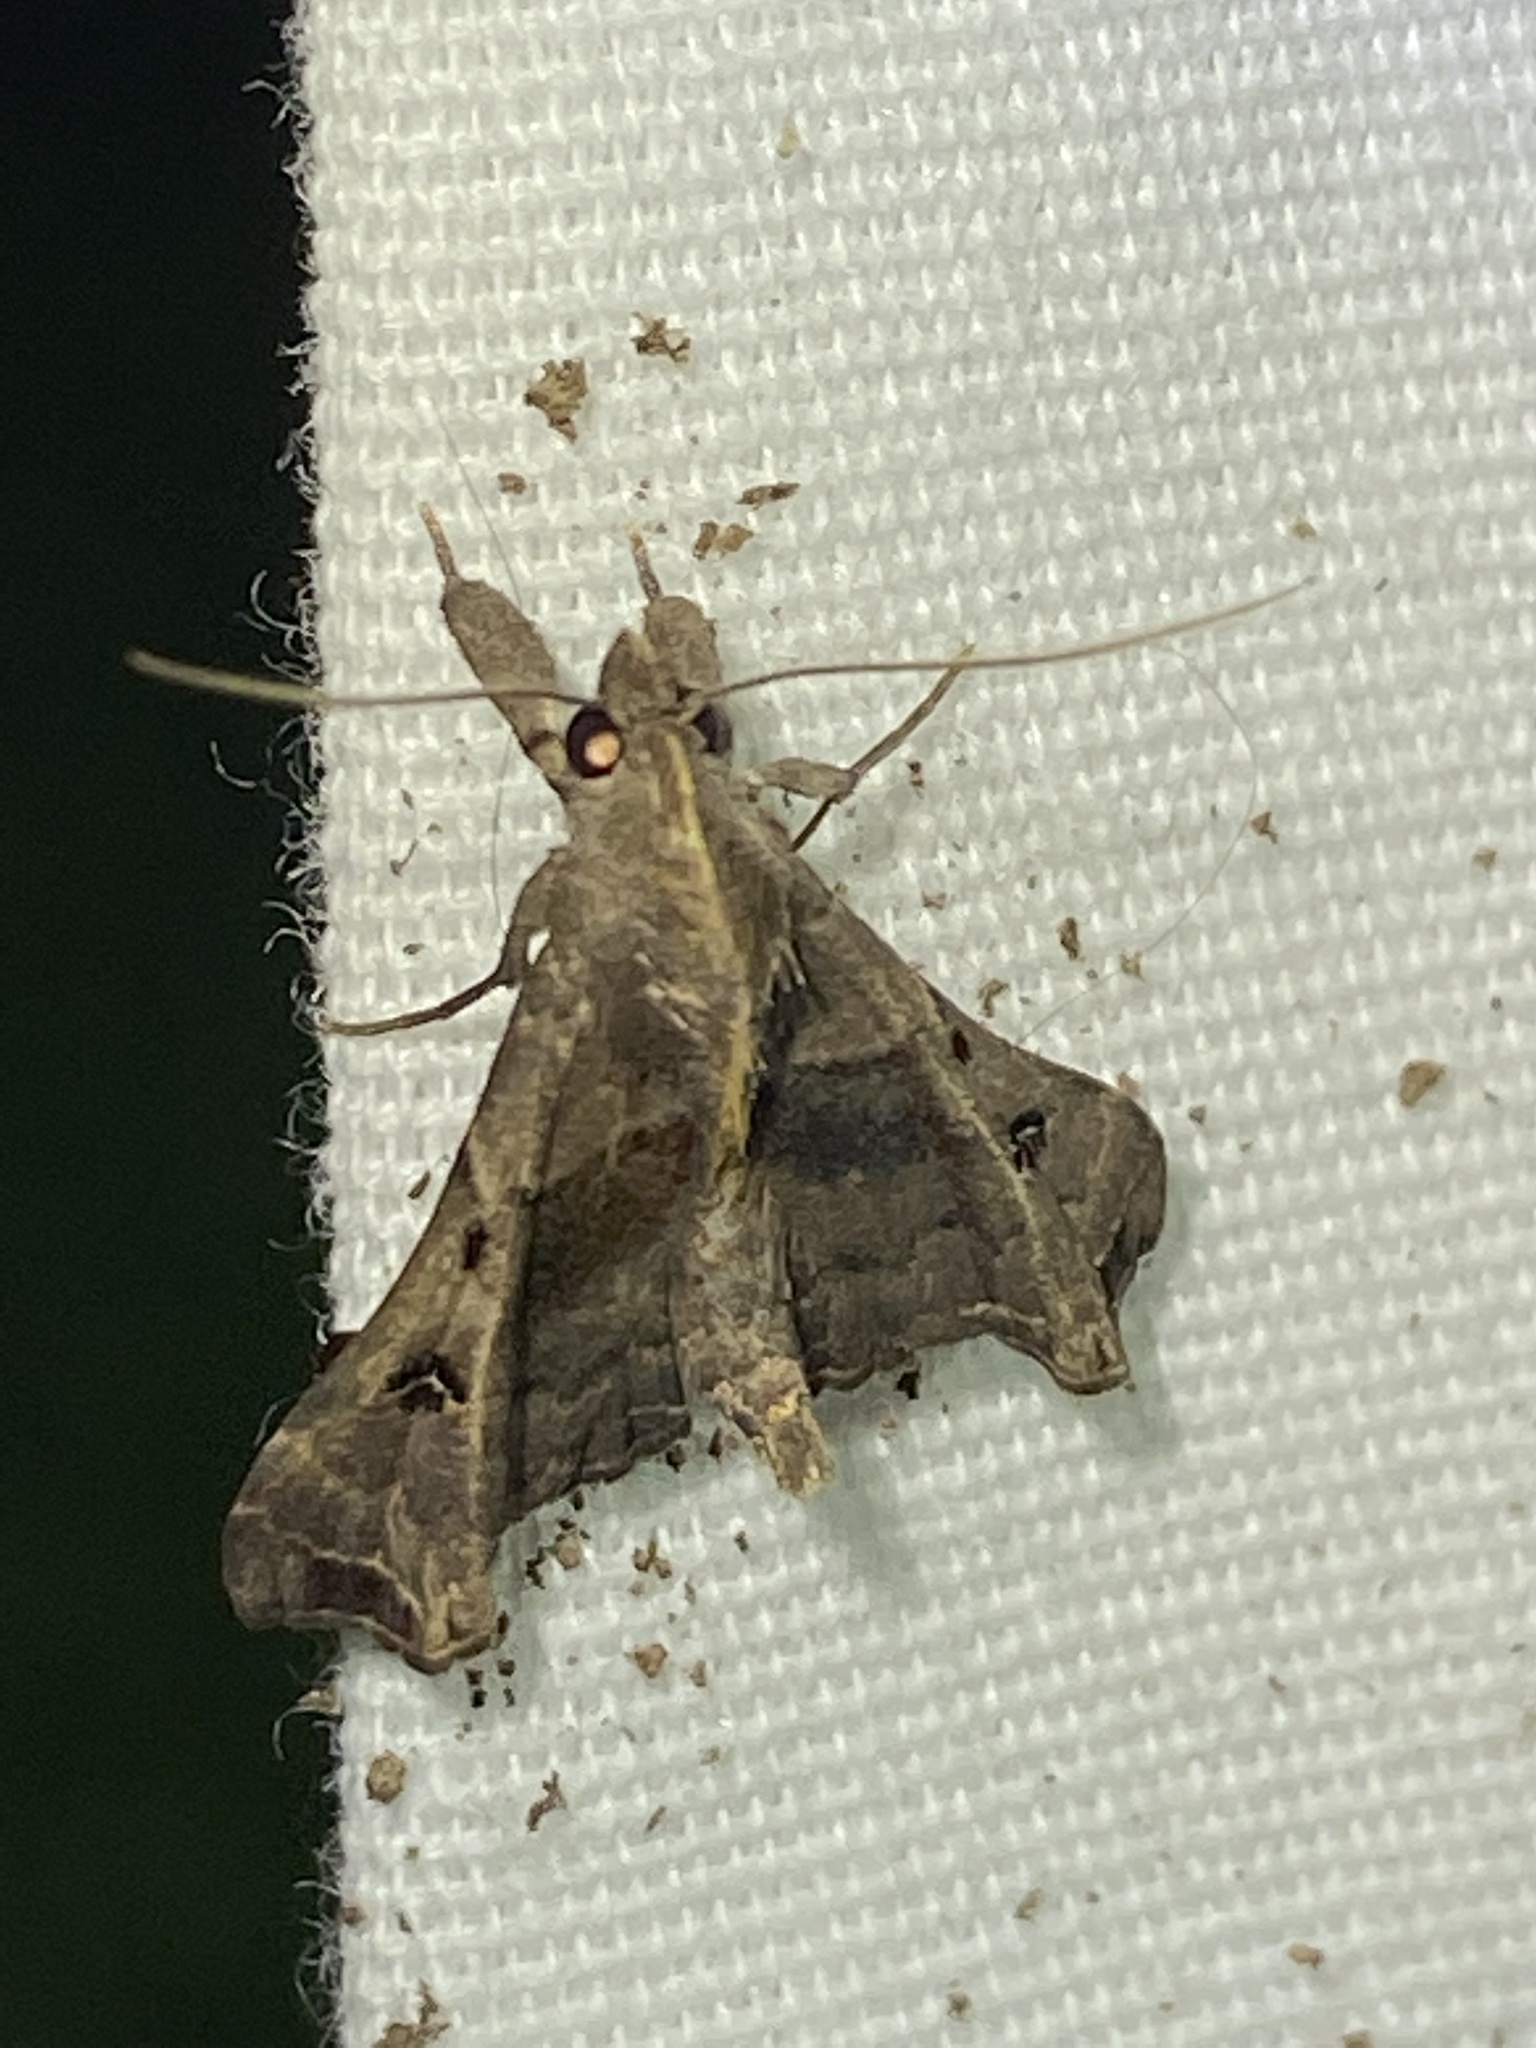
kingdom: Animalia
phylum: Arthropoda
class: Insecta
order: Lepidoptera
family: Erebidae
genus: Palthis
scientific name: Palthis asopialis
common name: Faint-spotted palthis moth
